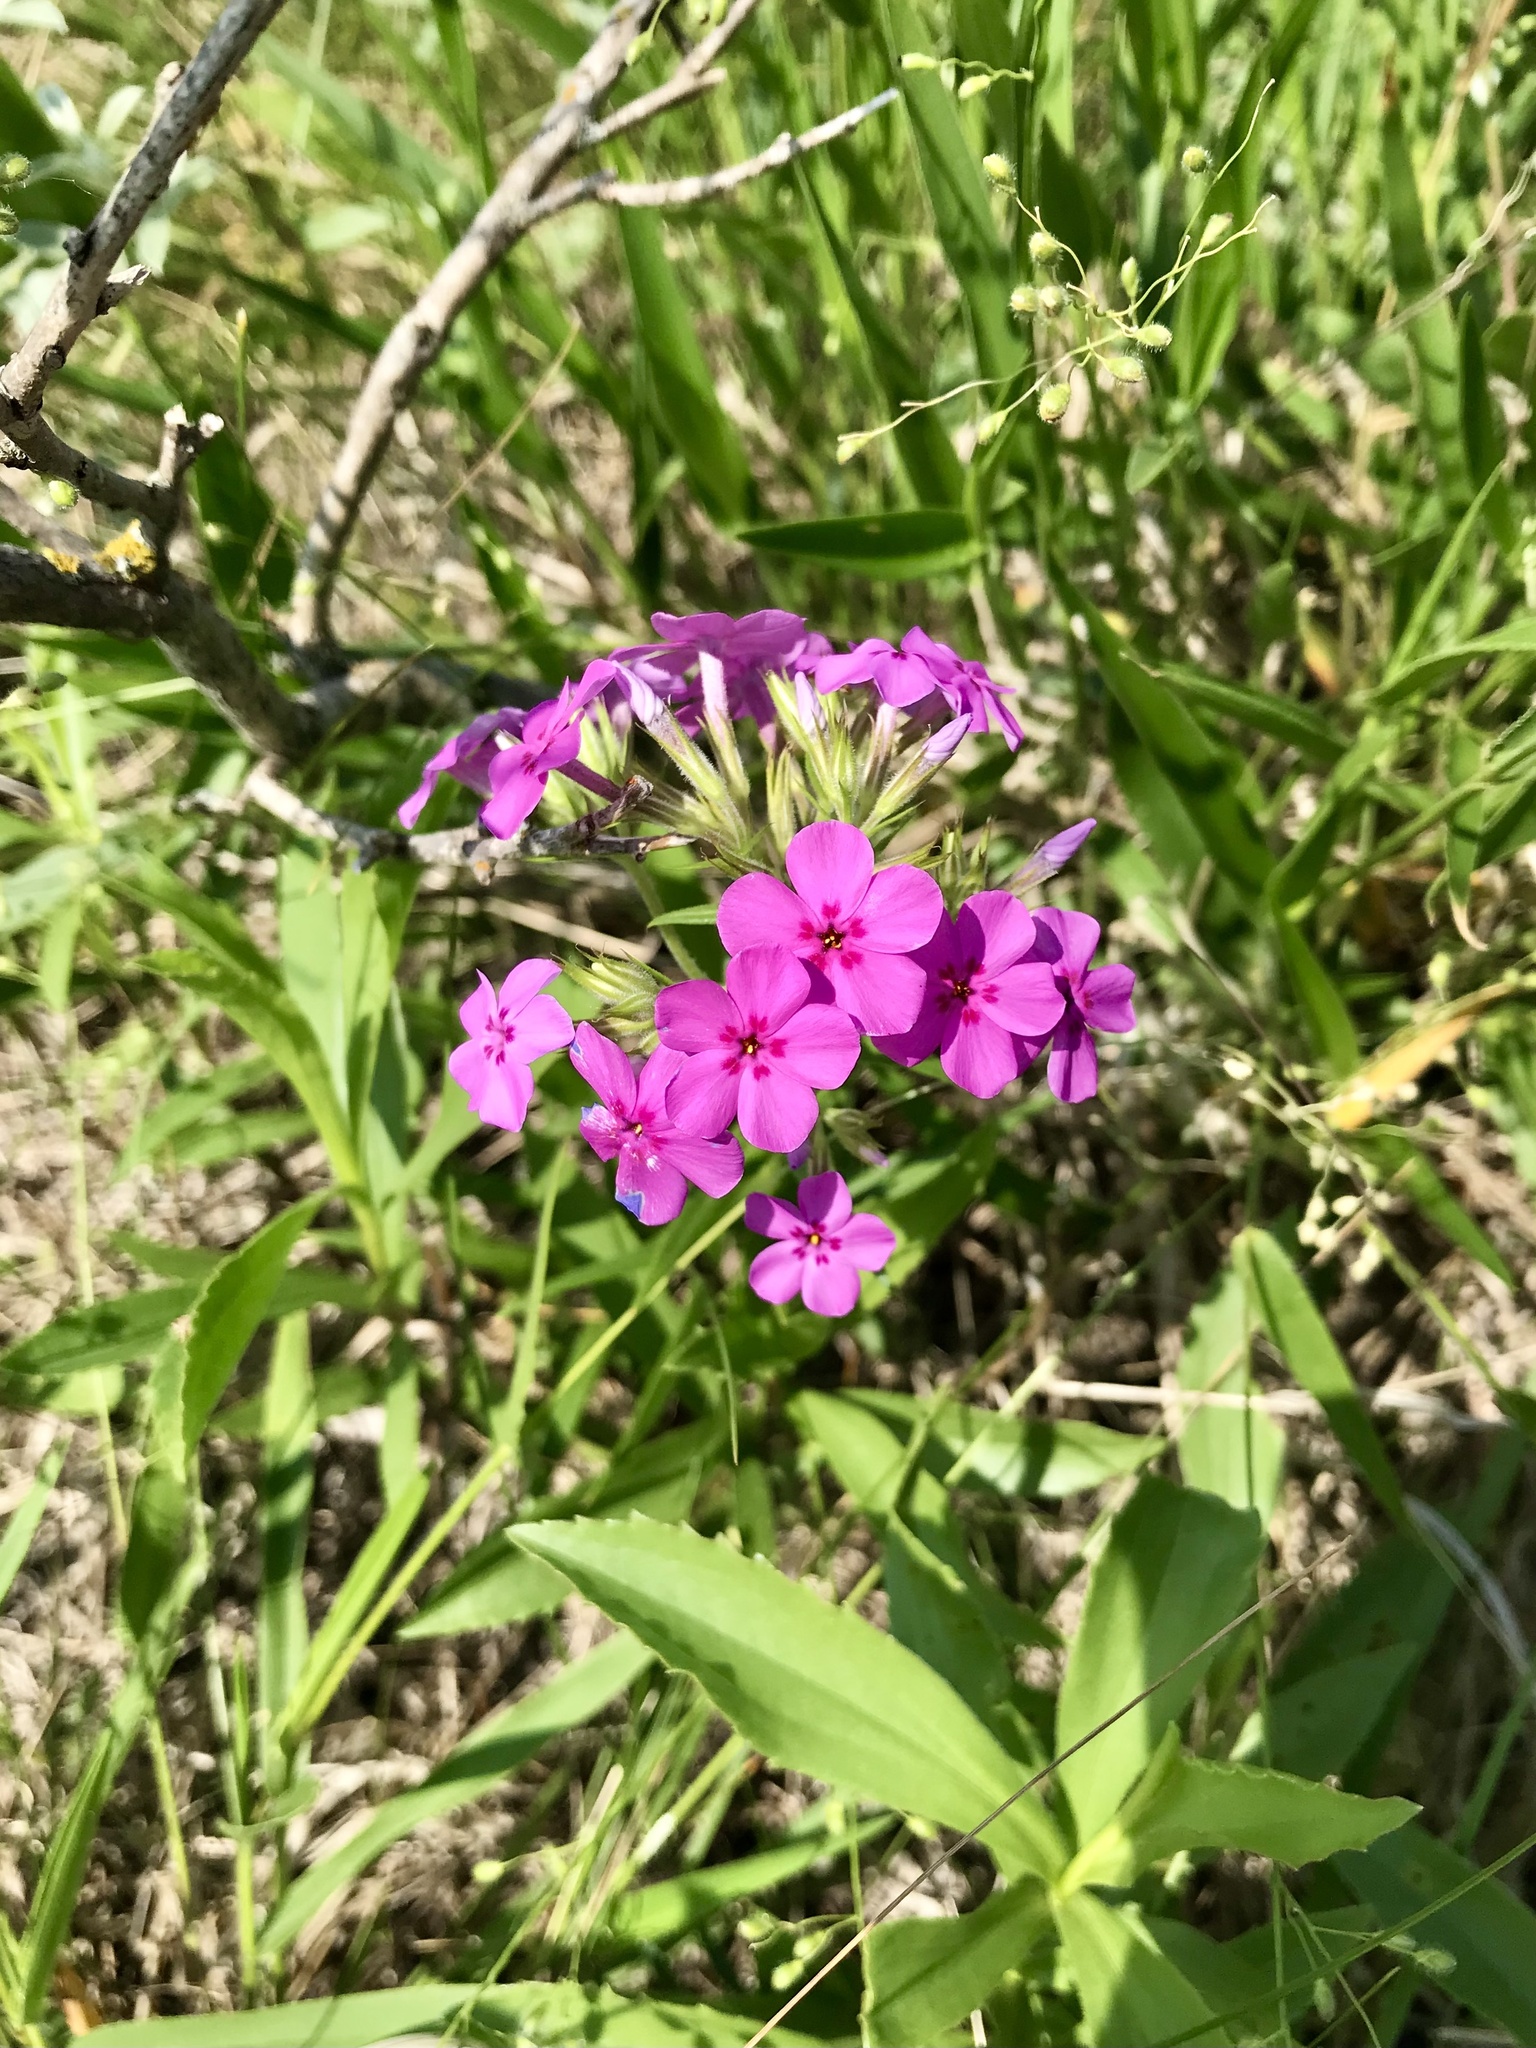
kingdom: Plantae
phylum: Tracheophyta
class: Magnoliopsida
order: Ericales
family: Polemoniaceae
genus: Phlox
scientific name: Phlox pilosa
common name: Prairie phlox
